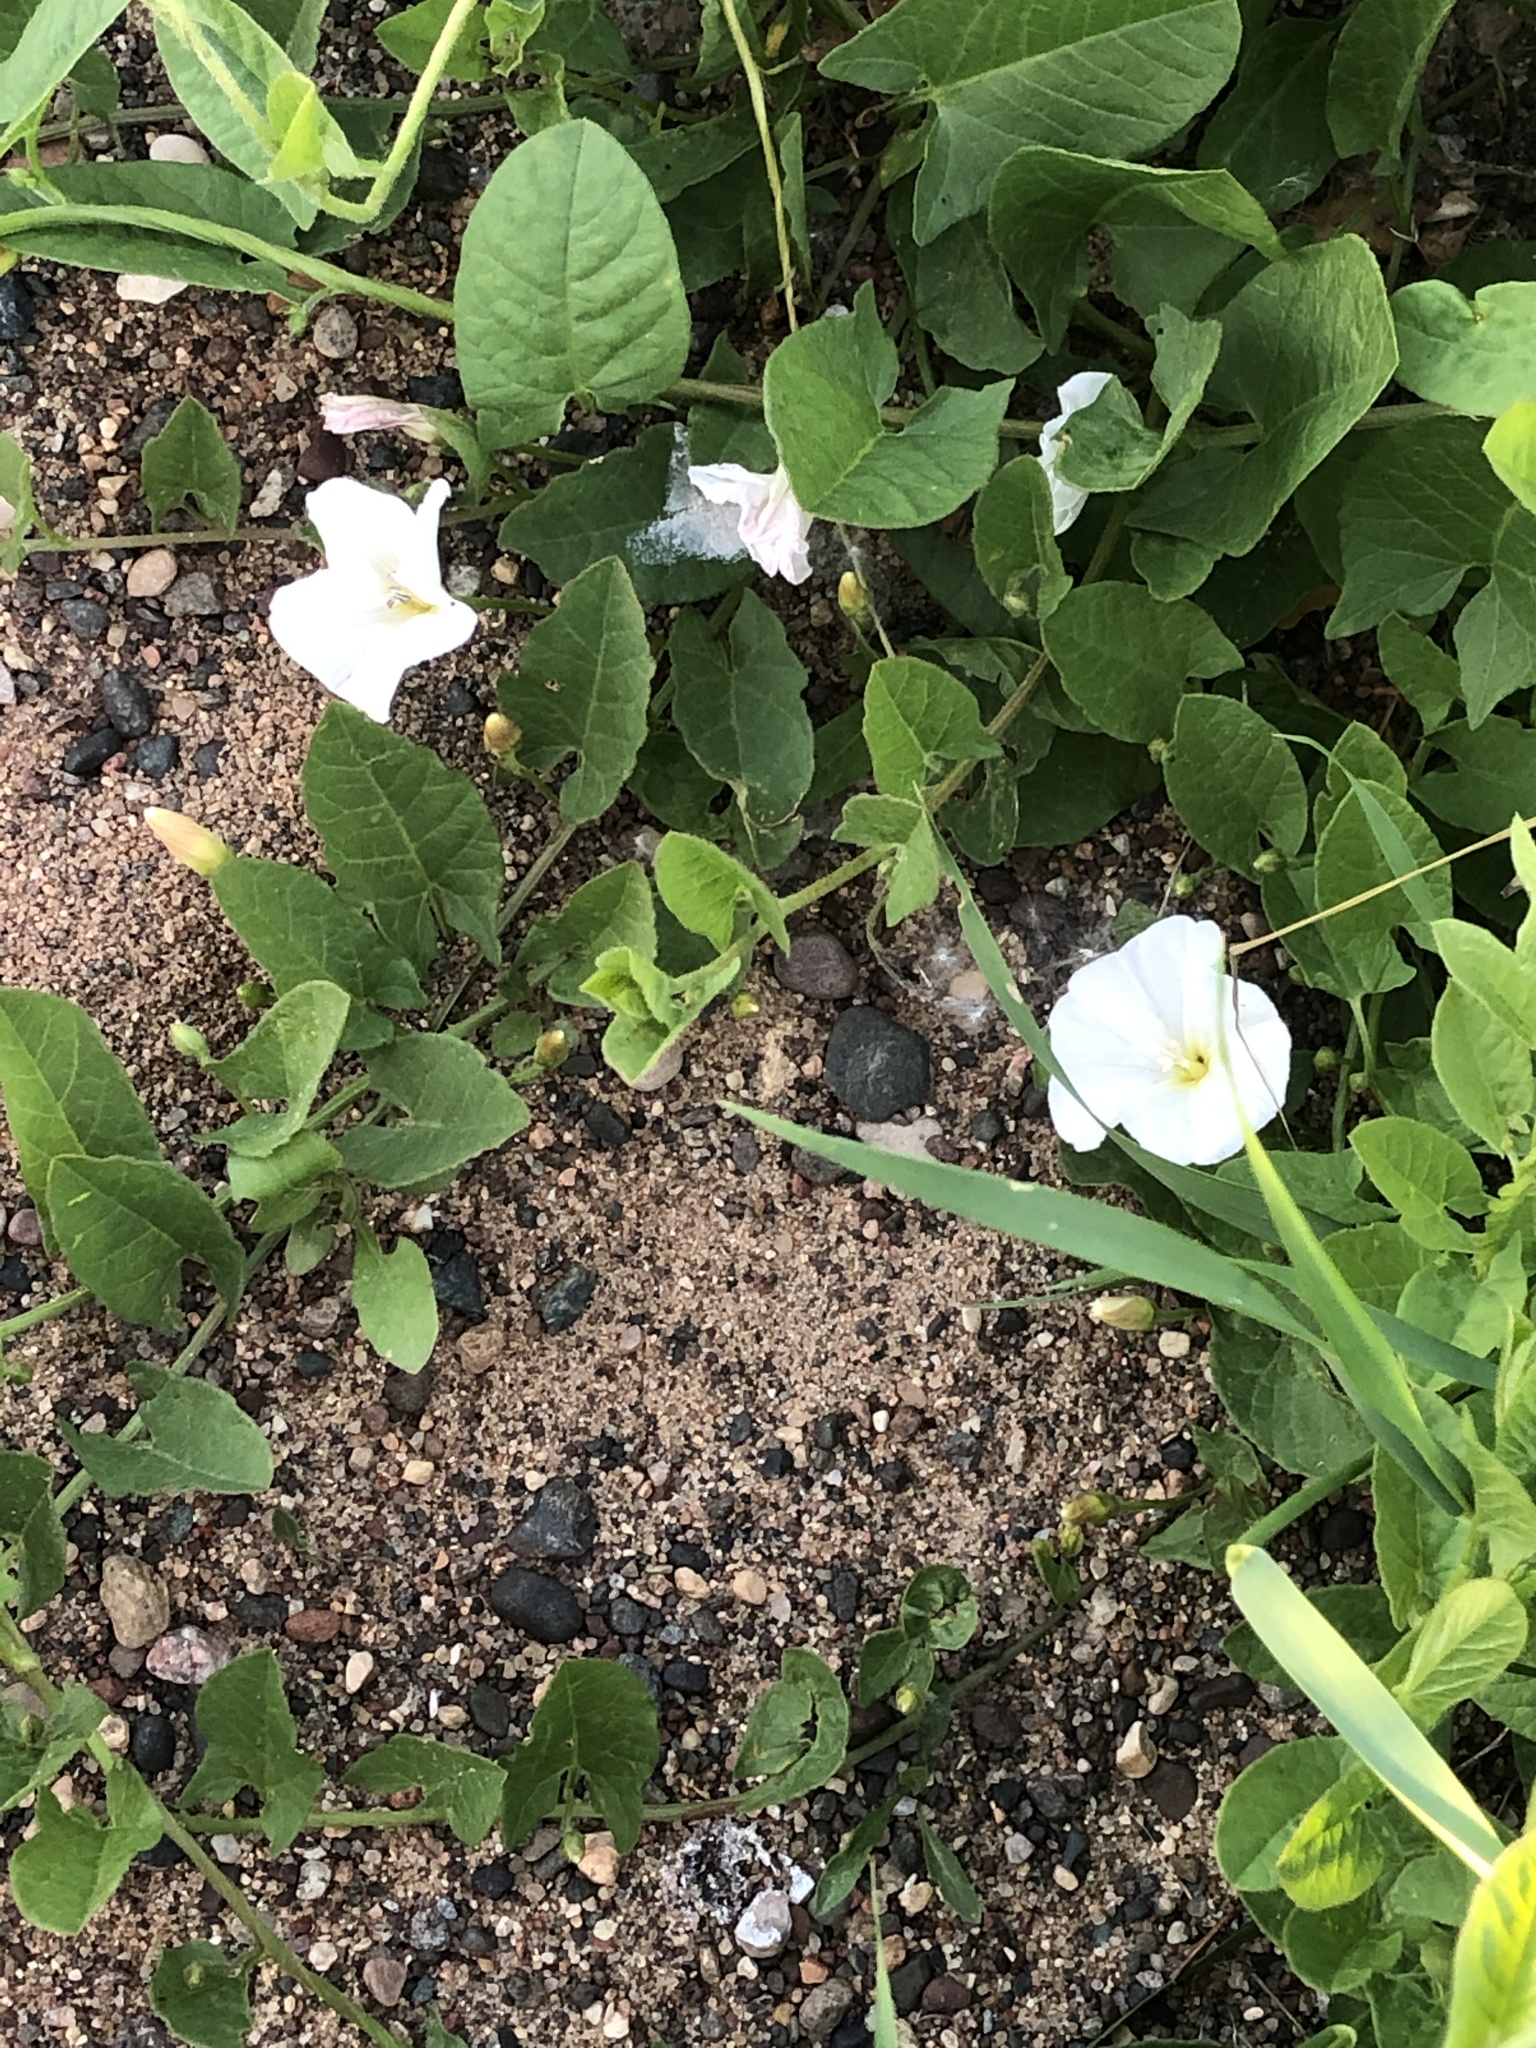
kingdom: Plantae
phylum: Tracheophyta
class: Magnoliopsida
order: Solanales
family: Convolvulaceae
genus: Convolvulus
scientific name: Convolvulus arvensis
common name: Field bindweed
